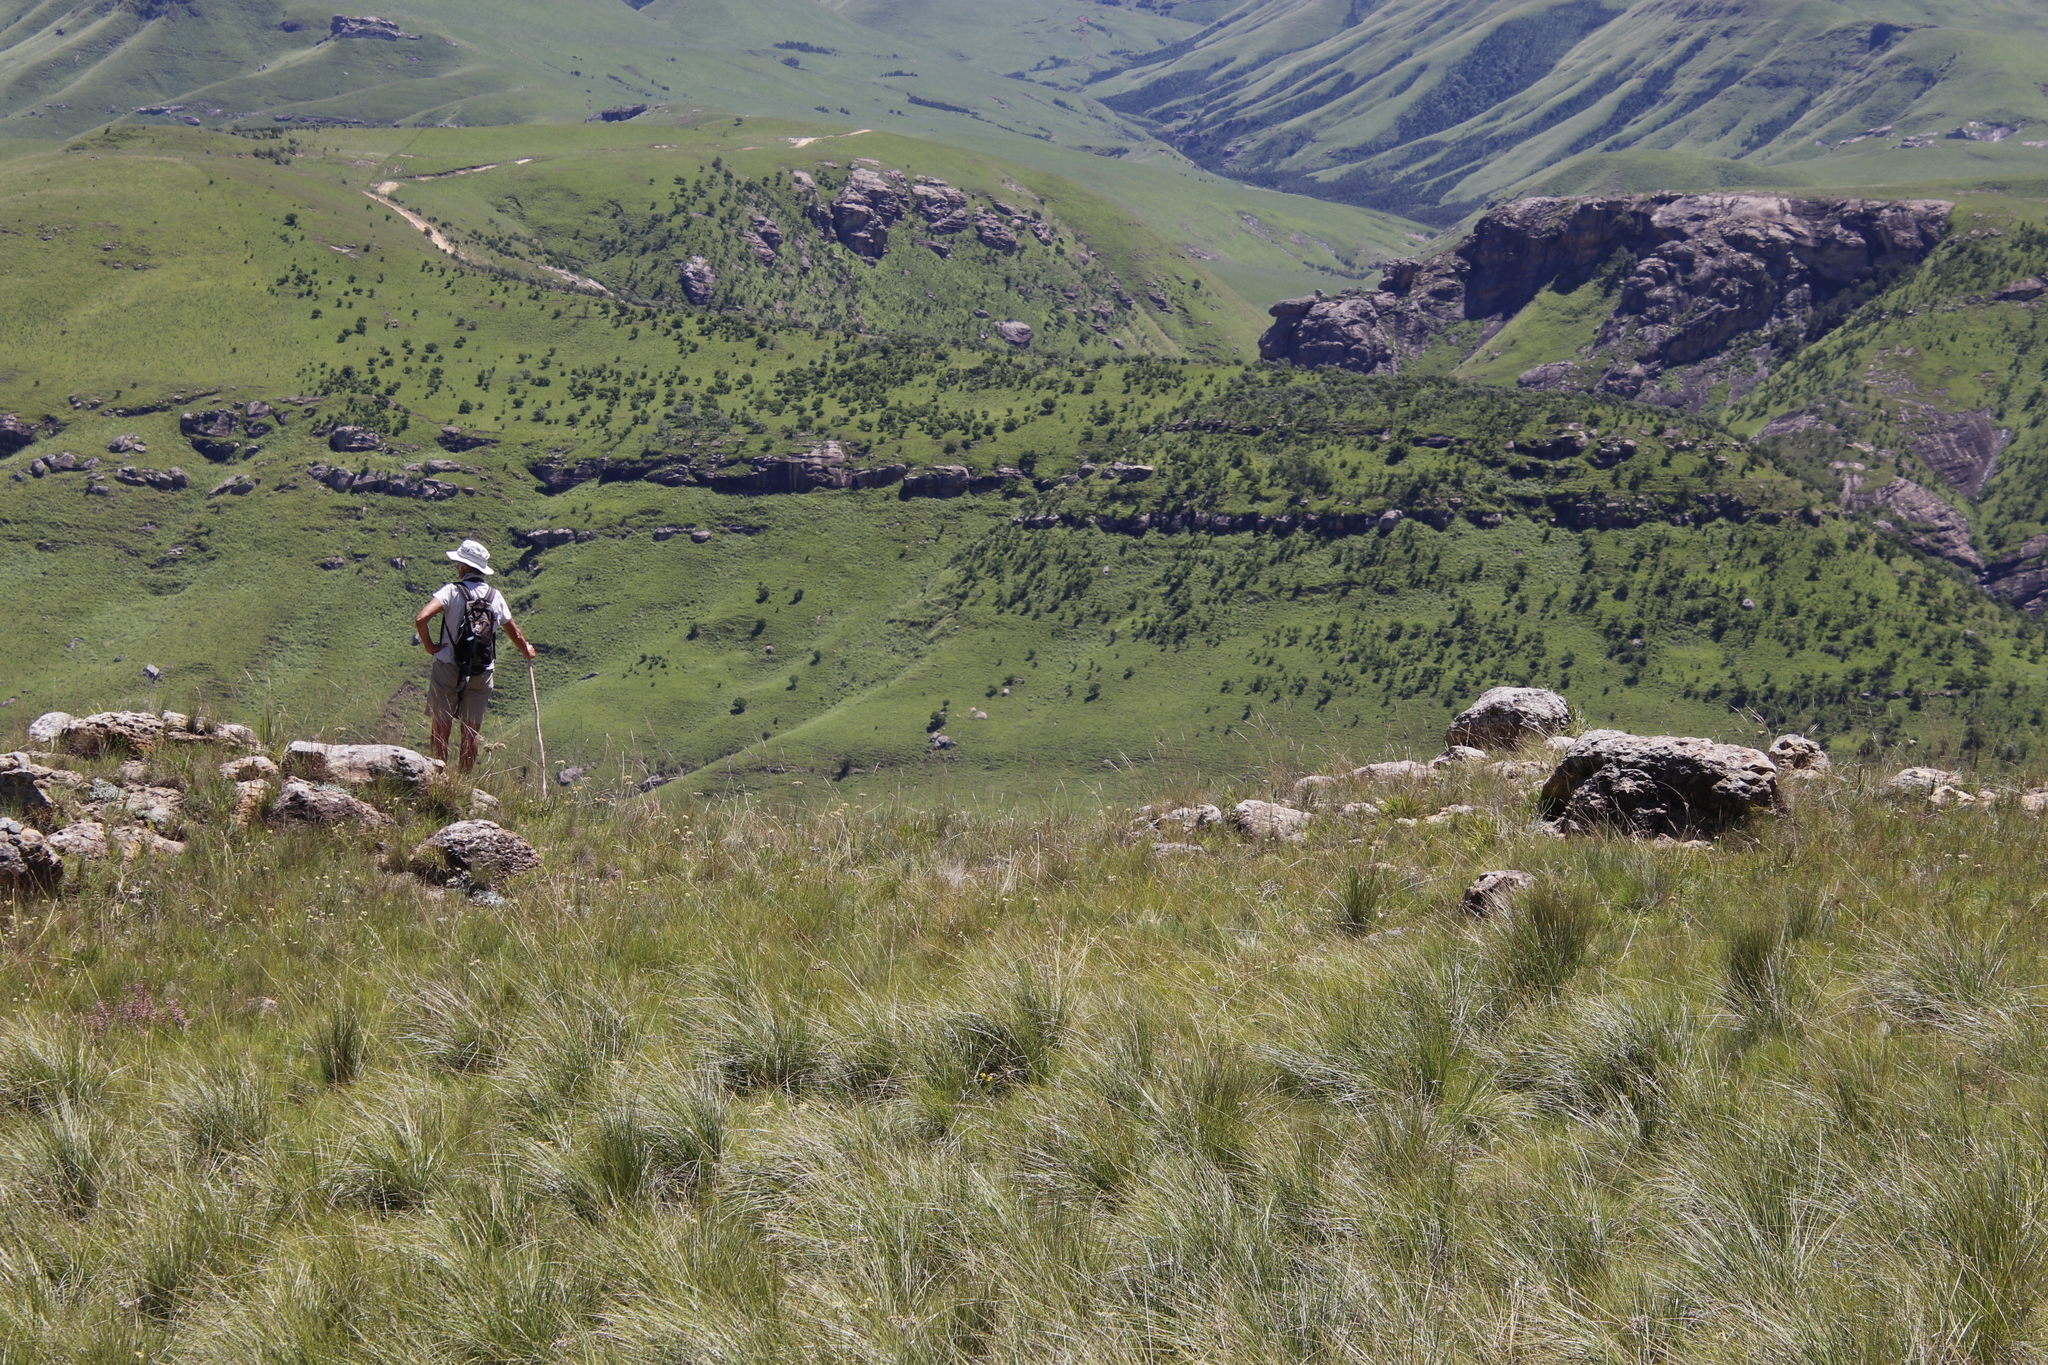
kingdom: Plantae
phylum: Tracheophyta
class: Magnoliopsida
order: Proteales
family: Proteaceae
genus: Protea
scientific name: Protea caffra
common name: Common sugarbush
